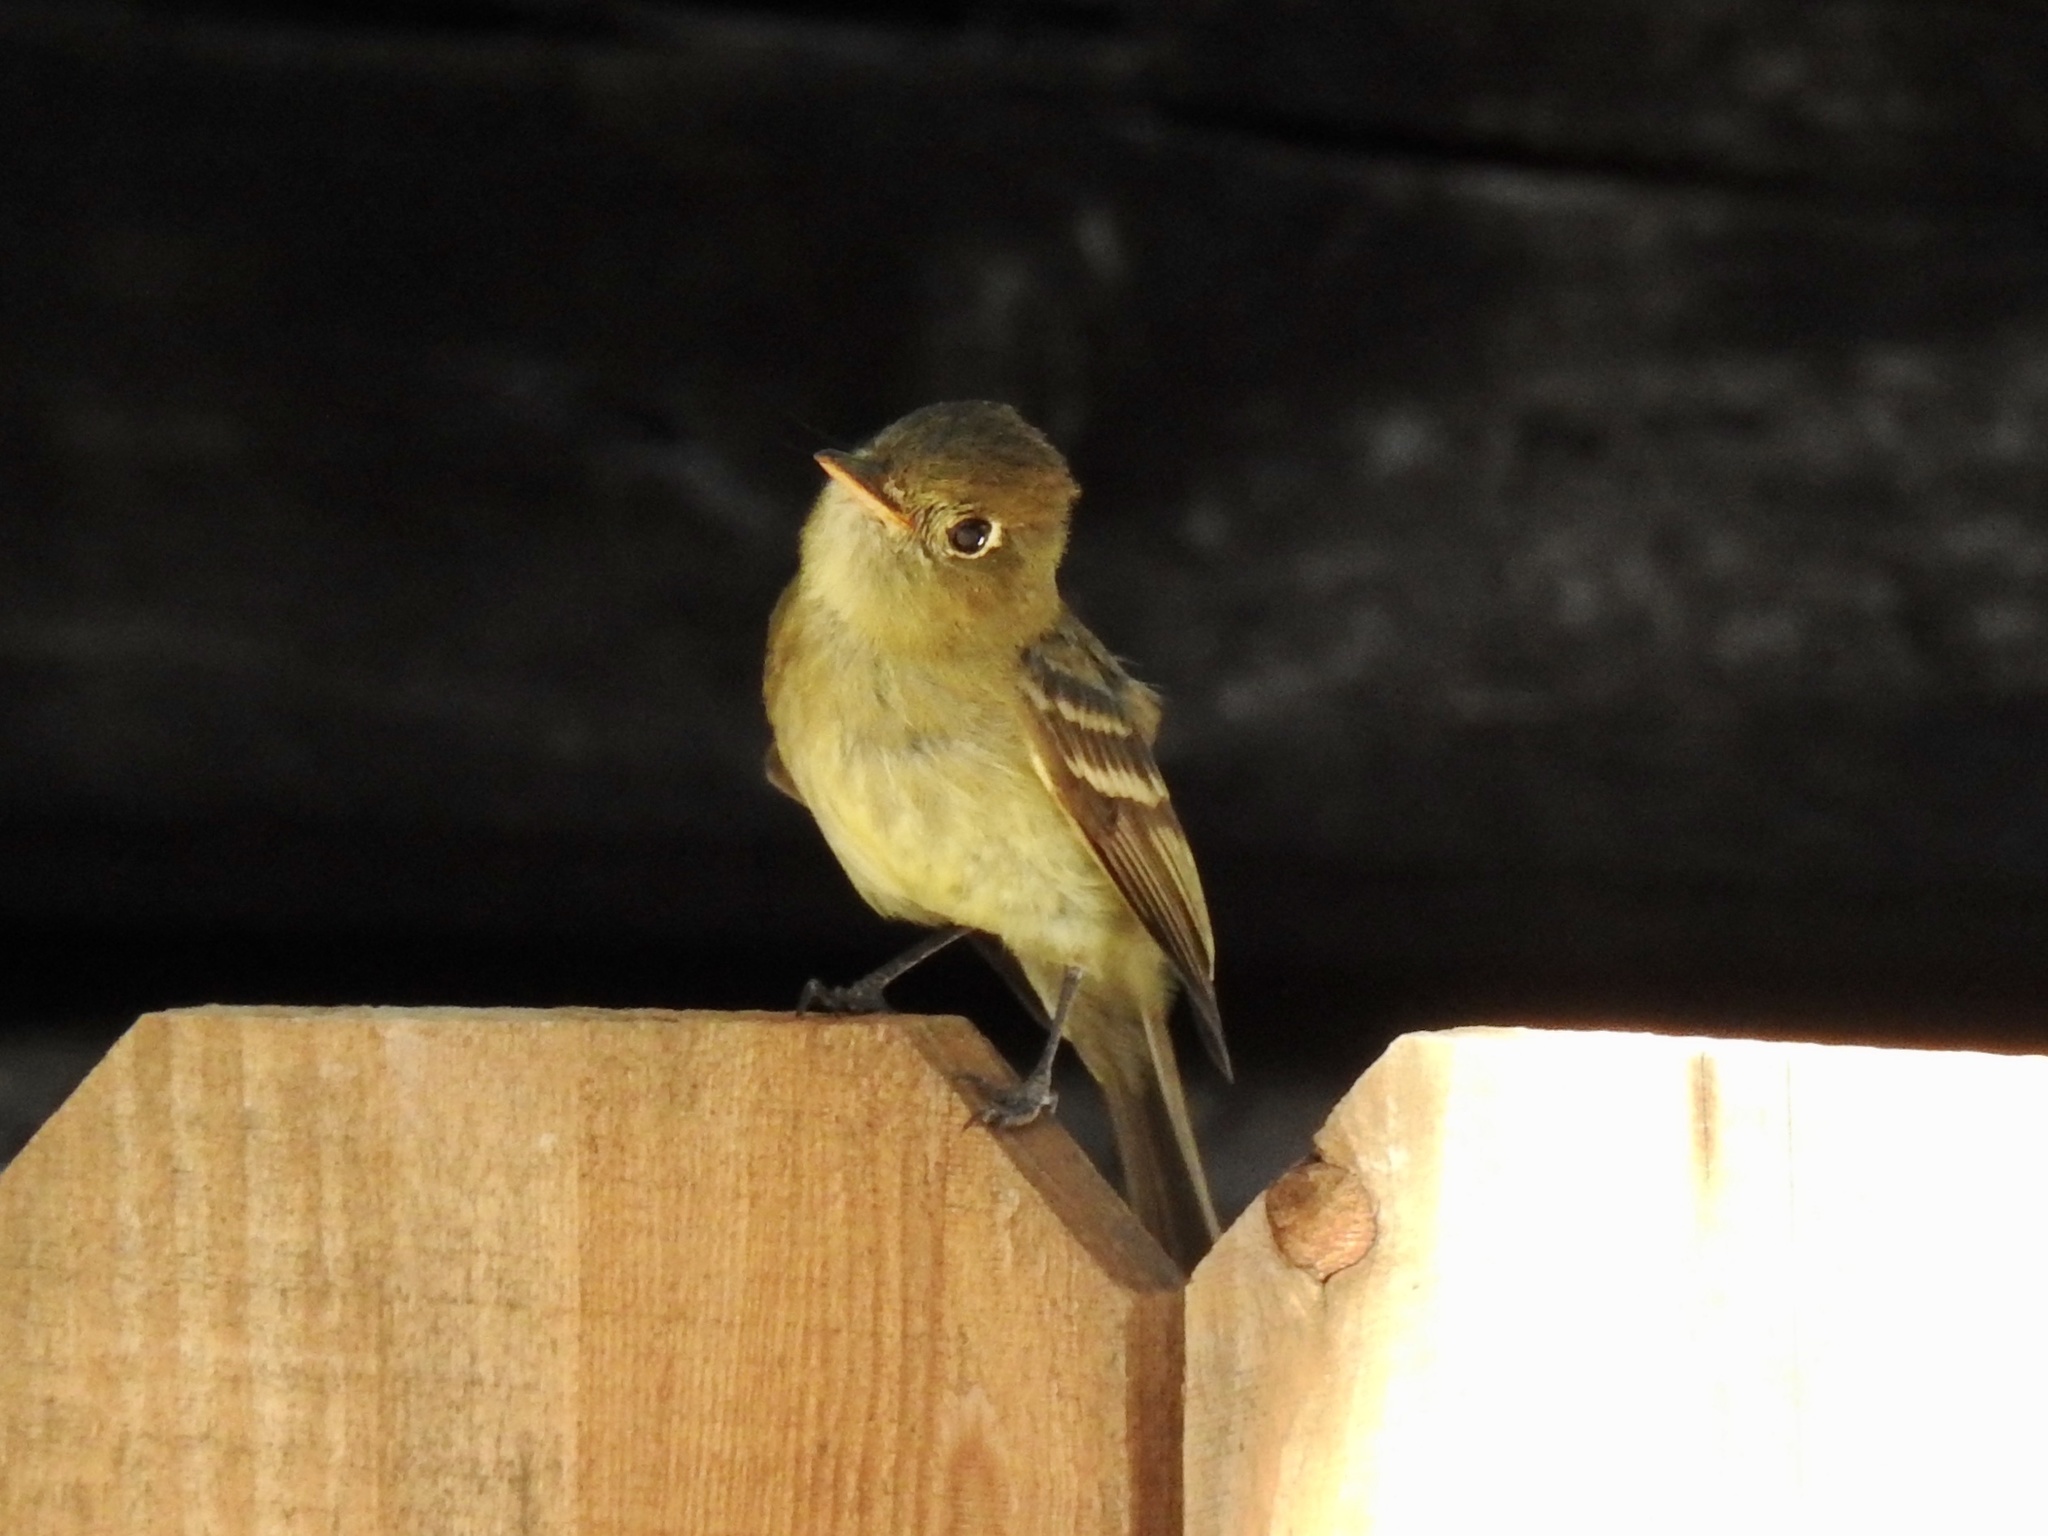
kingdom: Animalia
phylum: Chordata
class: Aves
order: Passeriformes
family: Tyrannidae
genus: Empidonax
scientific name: Empidonax difficilis
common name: Pacific-slope flycatcher
